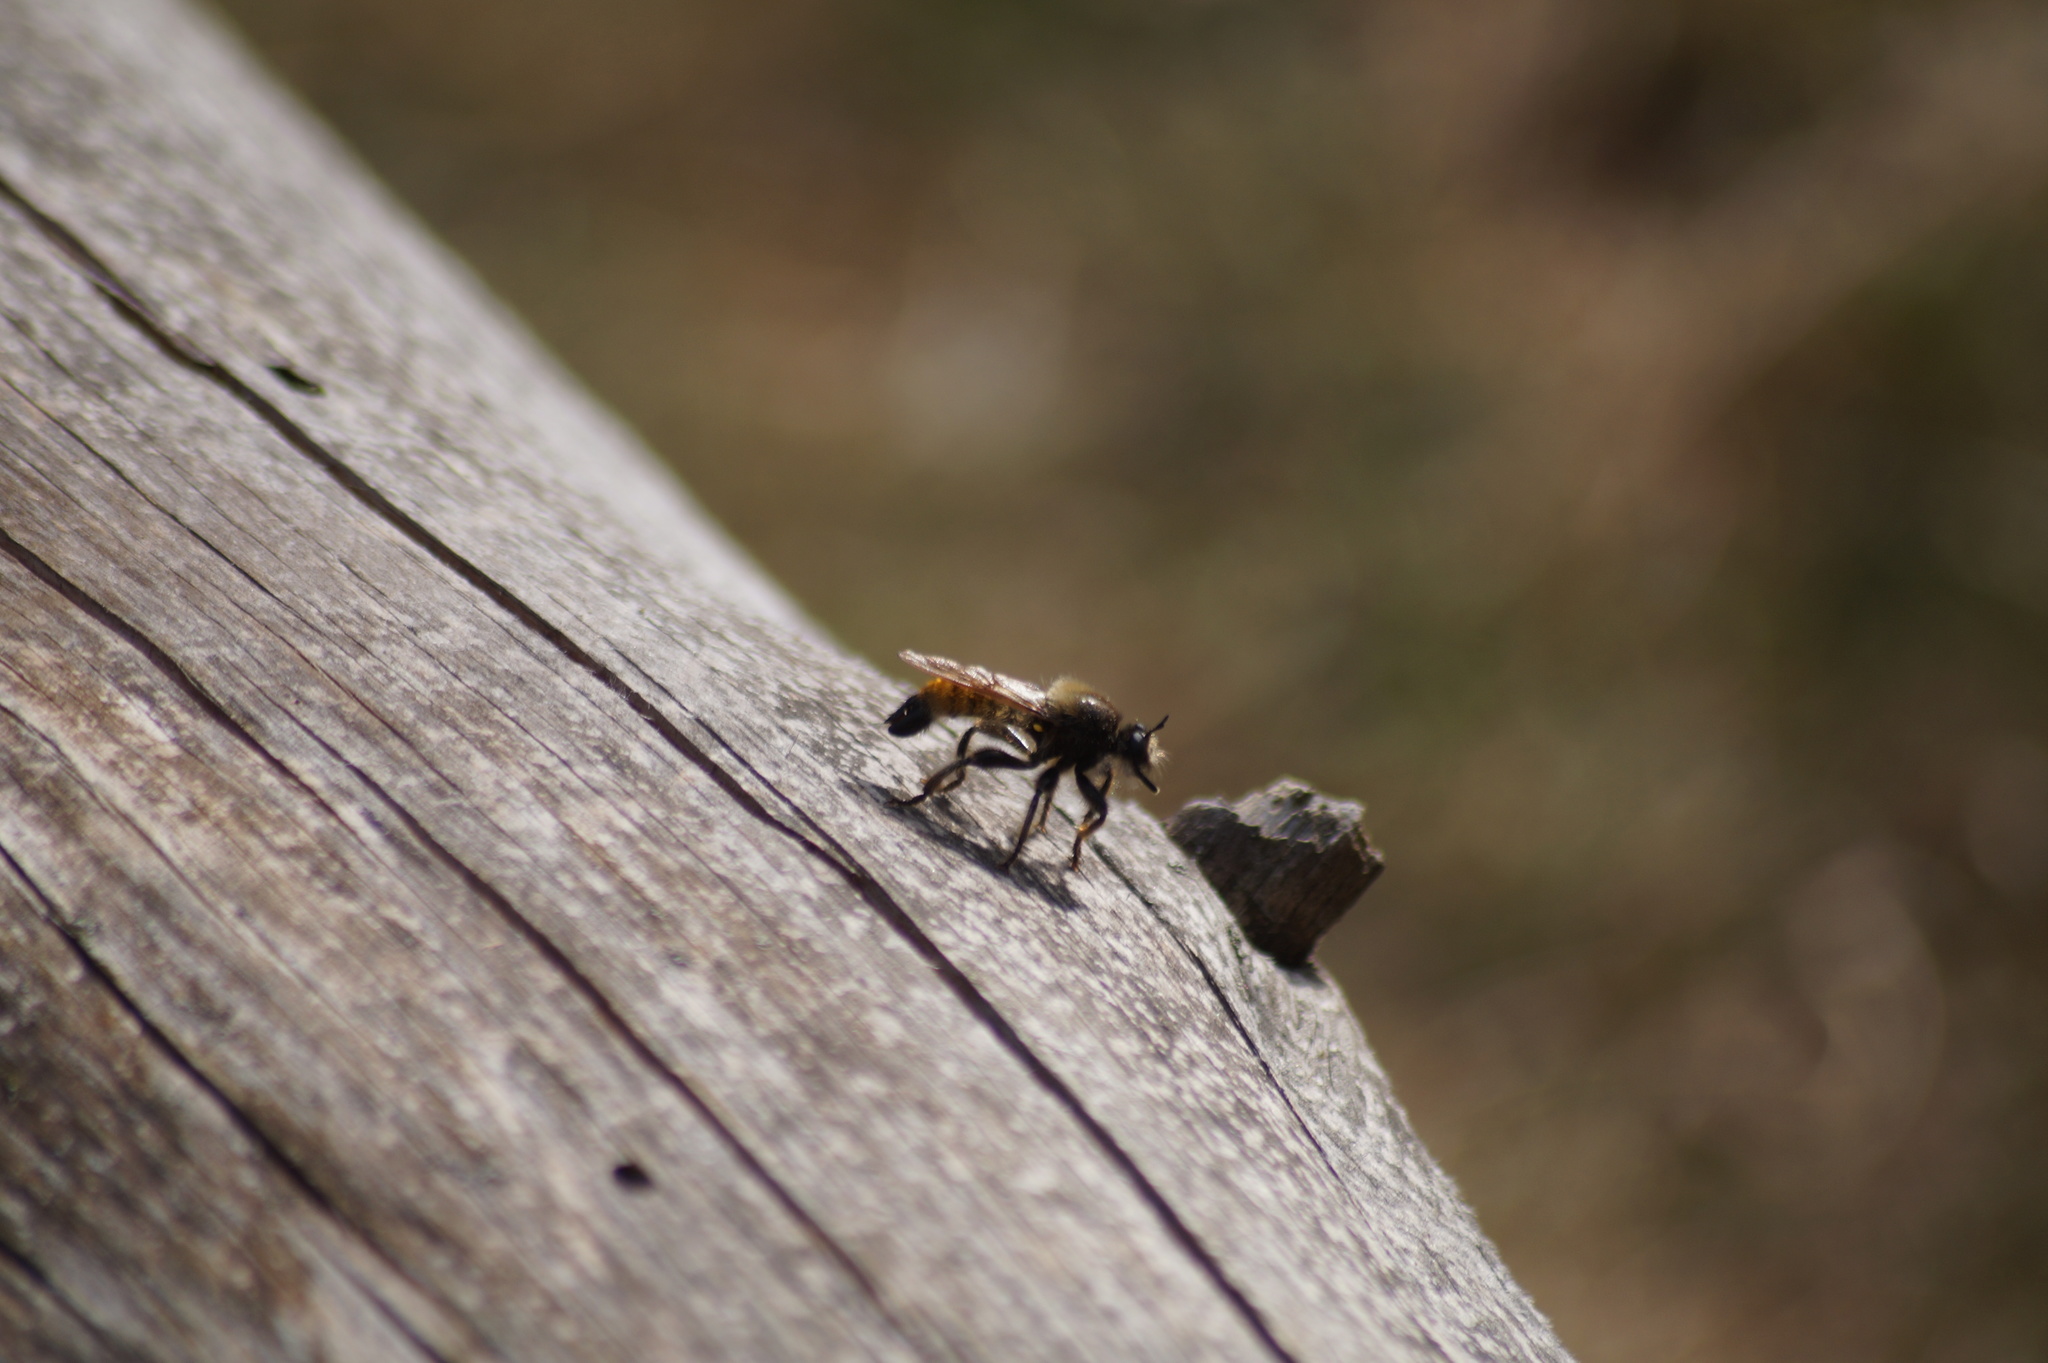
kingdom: Animalia
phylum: Arthropoda
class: Insecta
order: Diptera
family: Asilidae
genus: Laphria
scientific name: Laphria flava
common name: Bumblebee robberfly
